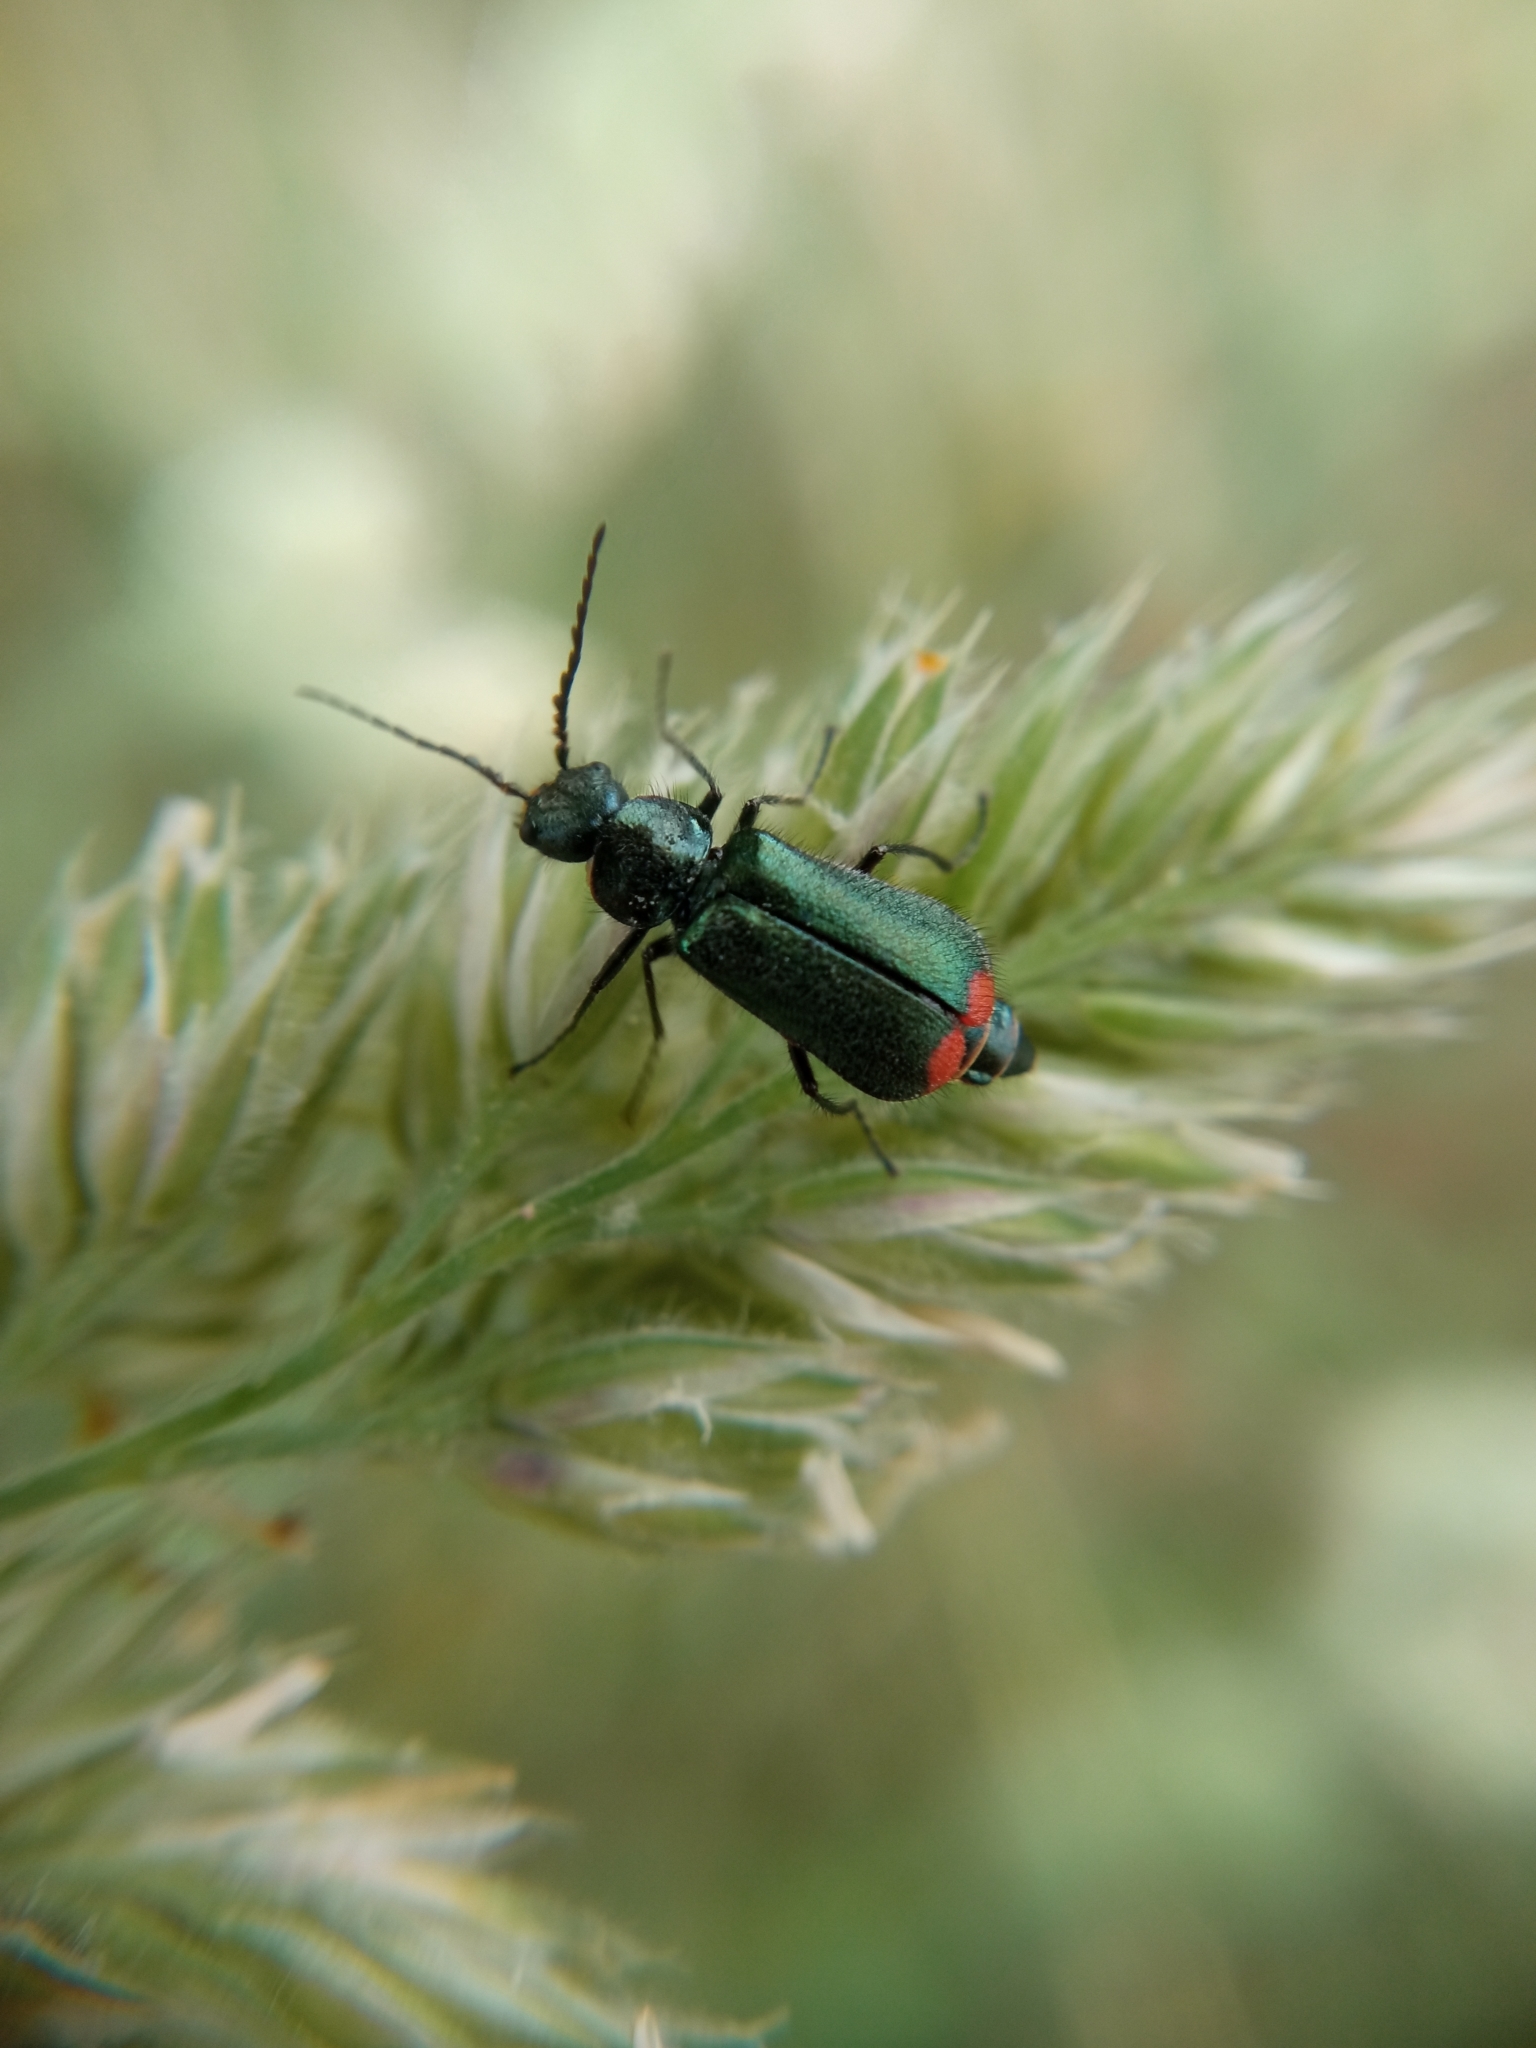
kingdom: Animalia
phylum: Arthropoda
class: Insecta
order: Coleoptera
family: Melyridae
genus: Malachius
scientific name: Malachius bipustulatus
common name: Malachite beetle
